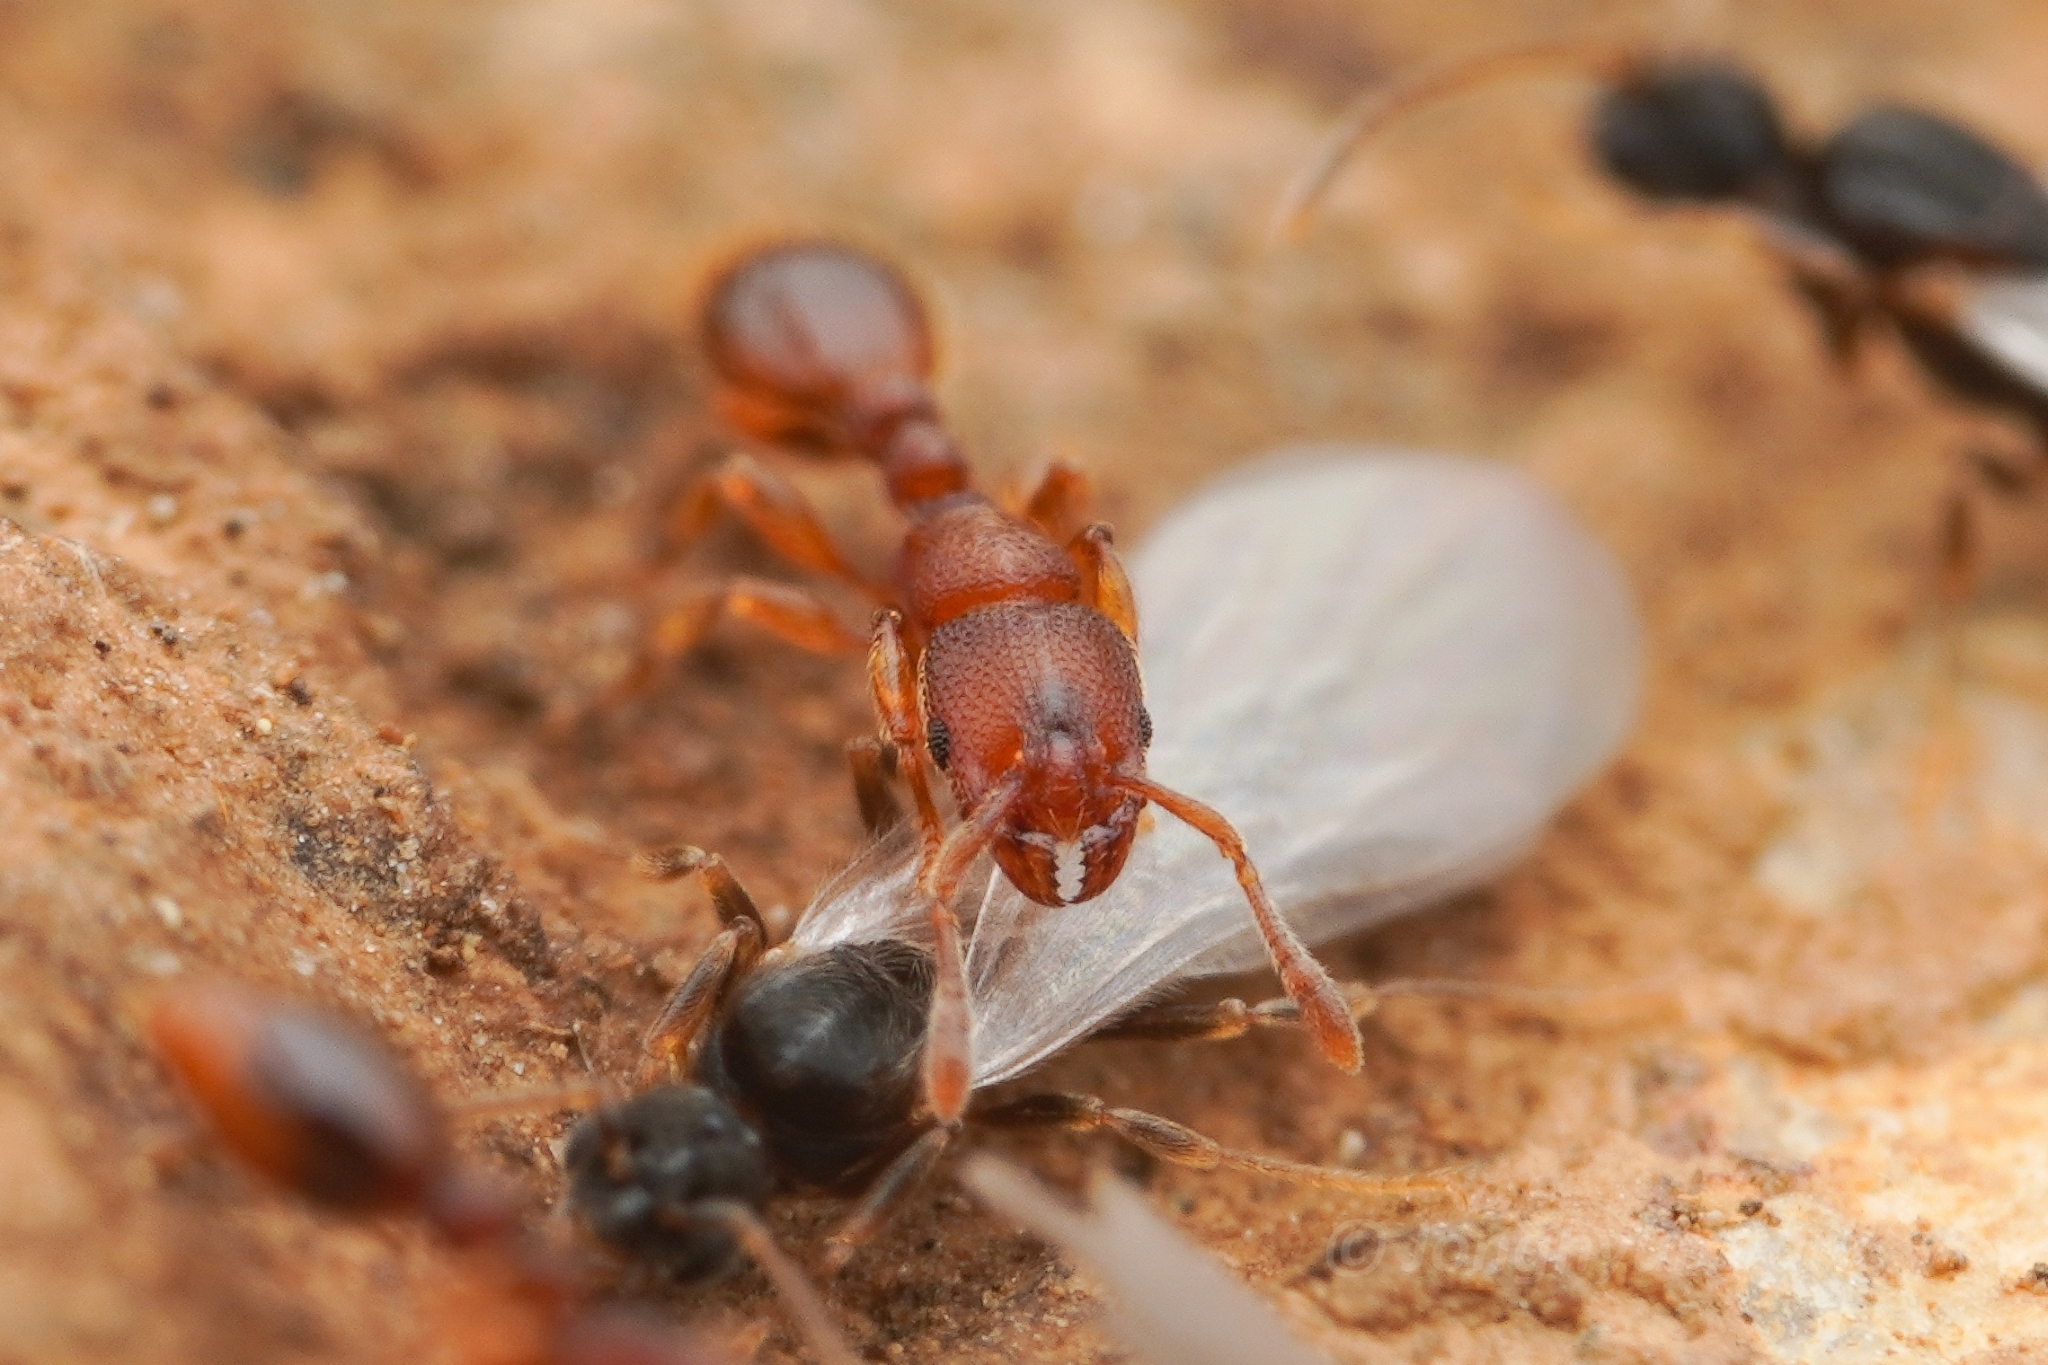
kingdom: Animalia
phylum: Arthropoda
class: Insecta
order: Hymenoptera
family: Formicidae
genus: Vollenhovia
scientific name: Vollenhovia emeryi
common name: Ant
